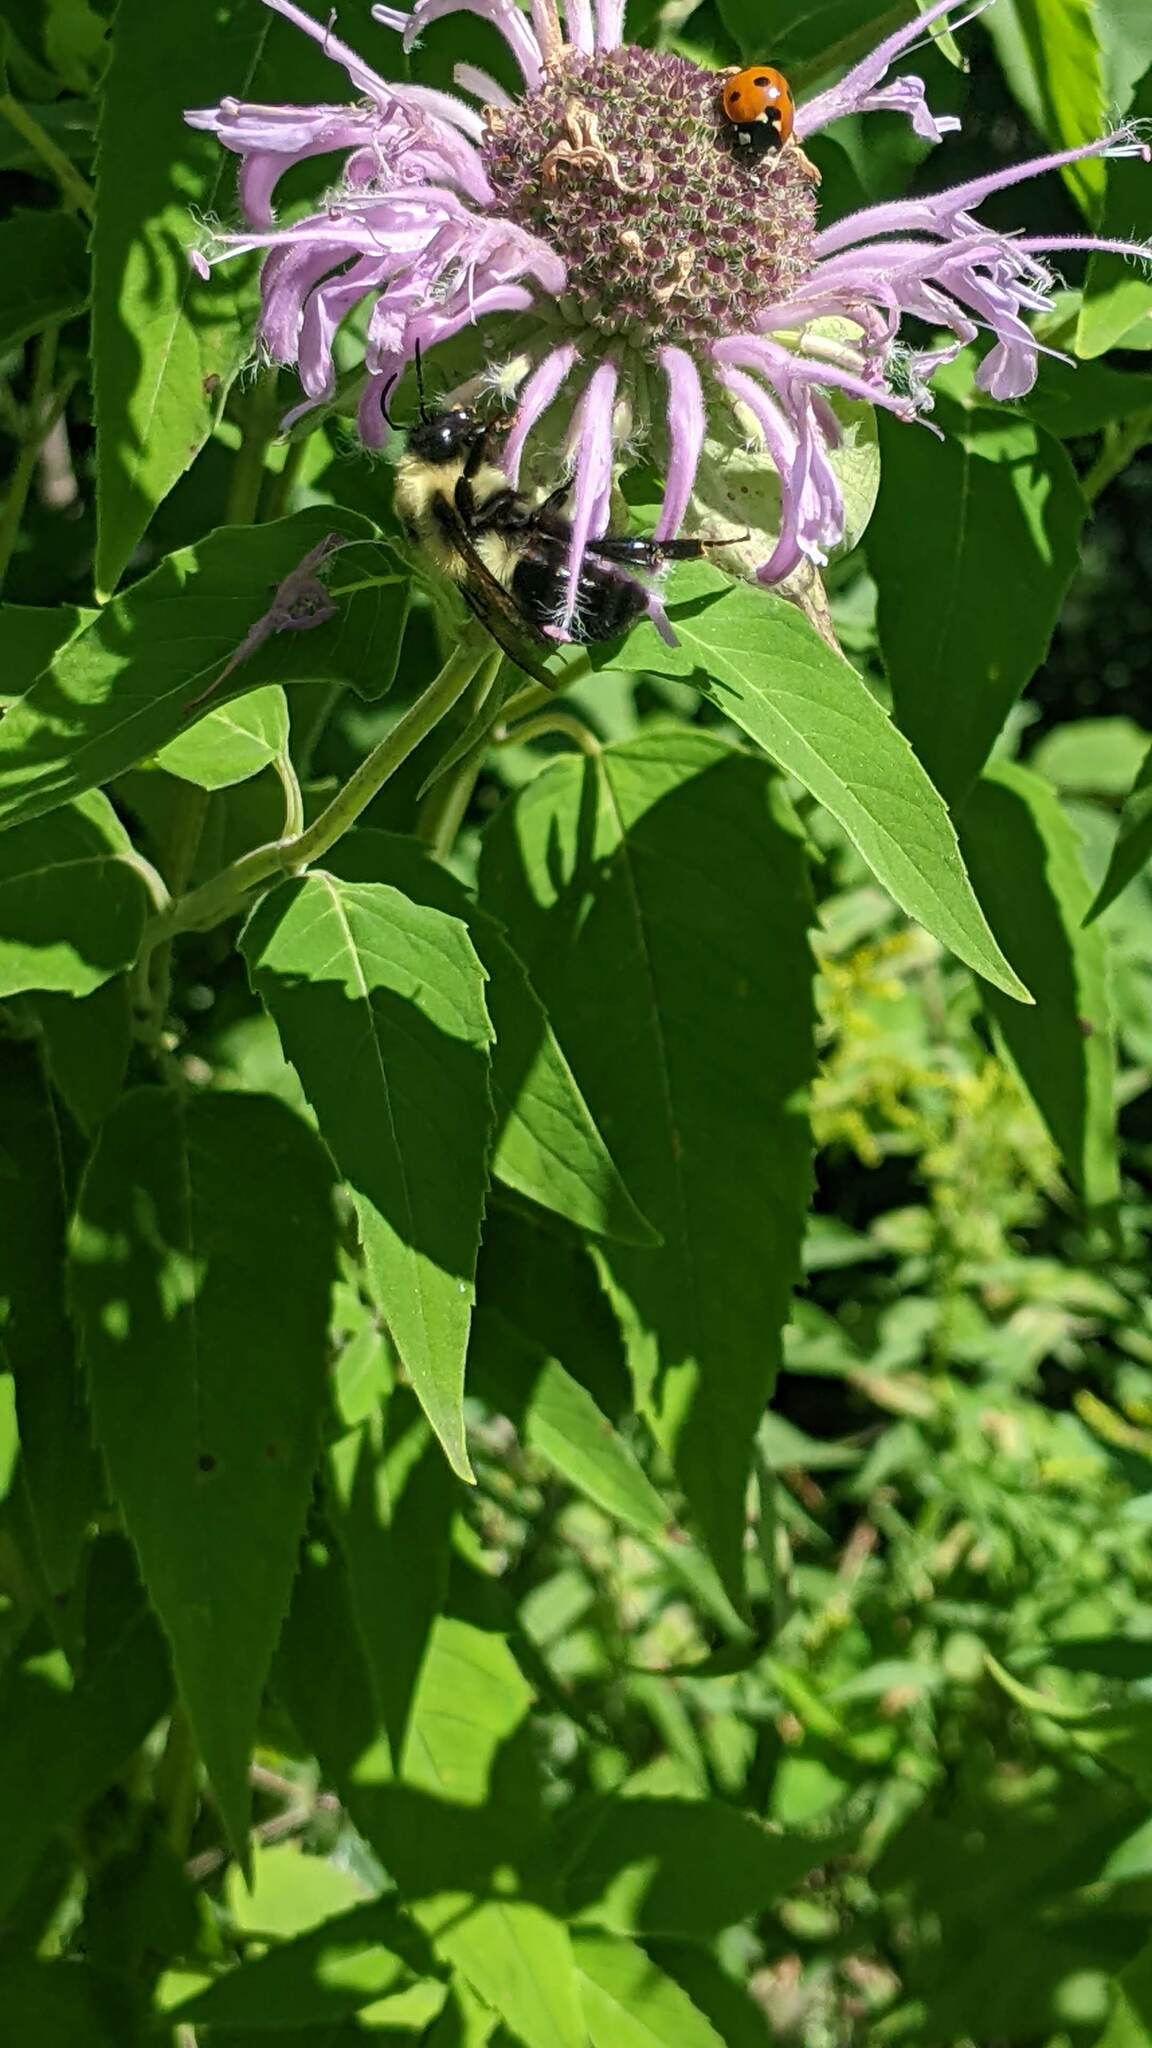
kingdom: Animalia
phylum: Arthropoda
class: Insecta
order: Hymenoptera
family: Apidae
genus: Bombus
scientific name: Bombus bimaculatus
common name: Two-spotted bumble bee
